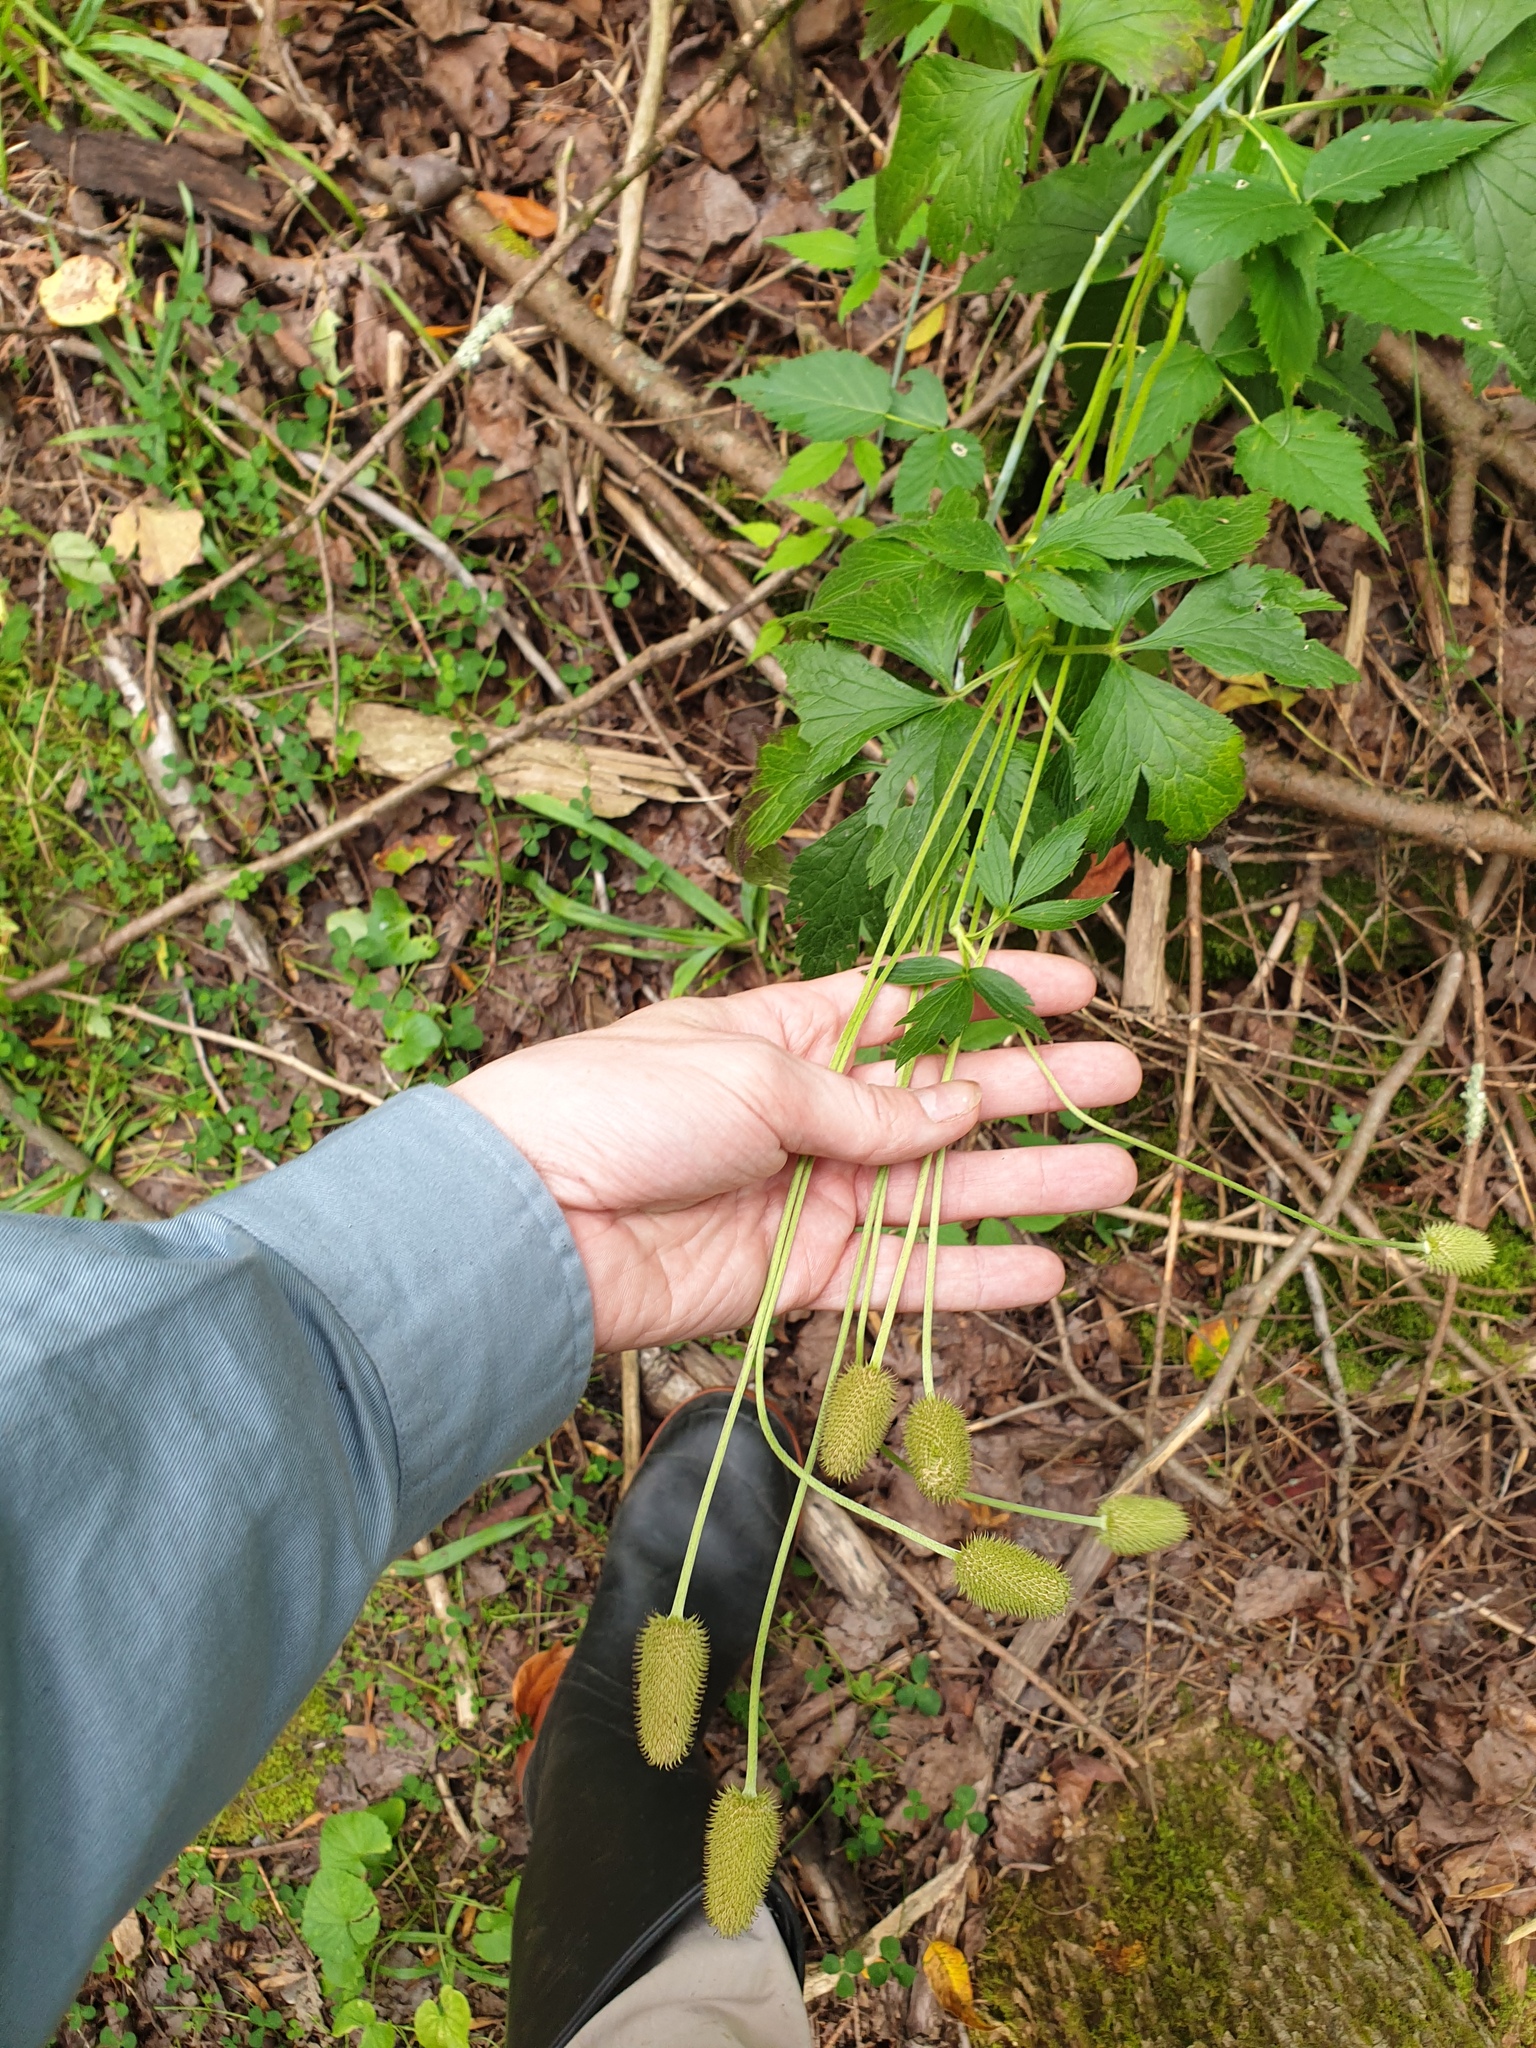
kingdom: Plantae
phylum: Tracheophyta
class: Magnoliopsida
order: Ranunculales
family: Ranunculaceae
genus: Anemone
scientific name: Anemone virginiana
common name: Tall anemone
